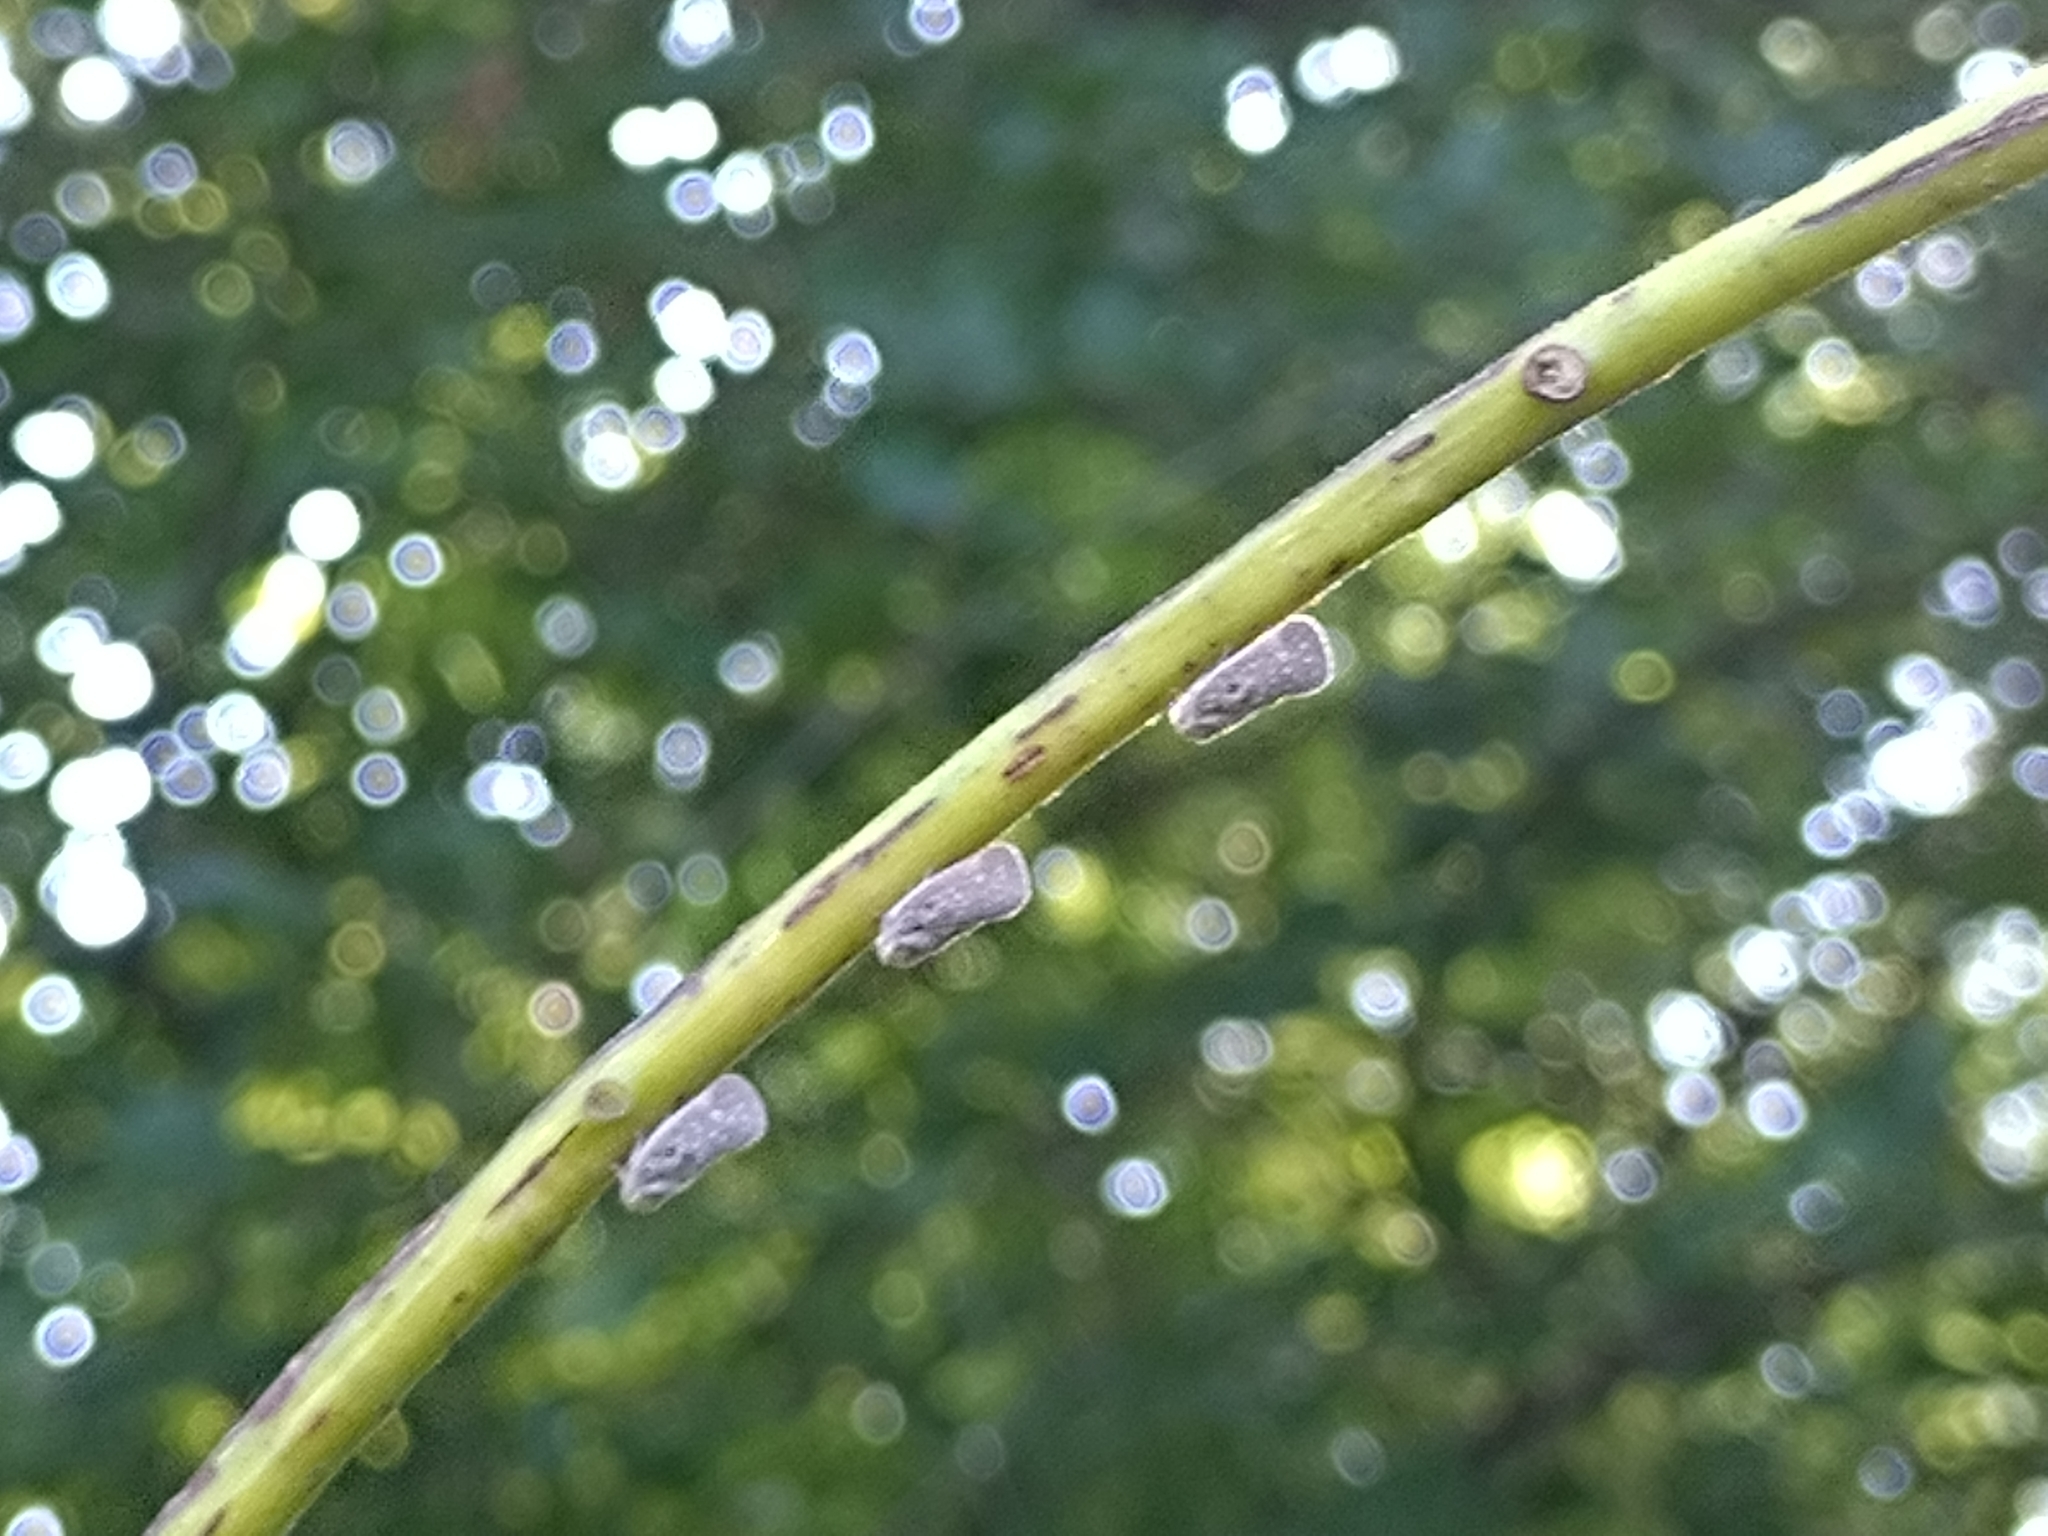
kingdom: Animalia
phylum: Arthropoda
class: Insecta
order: Hemiptera
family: Flatidae
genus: Metcalfa
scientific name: Metcalfa pruinosa
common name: Citrus flatid planthopper
